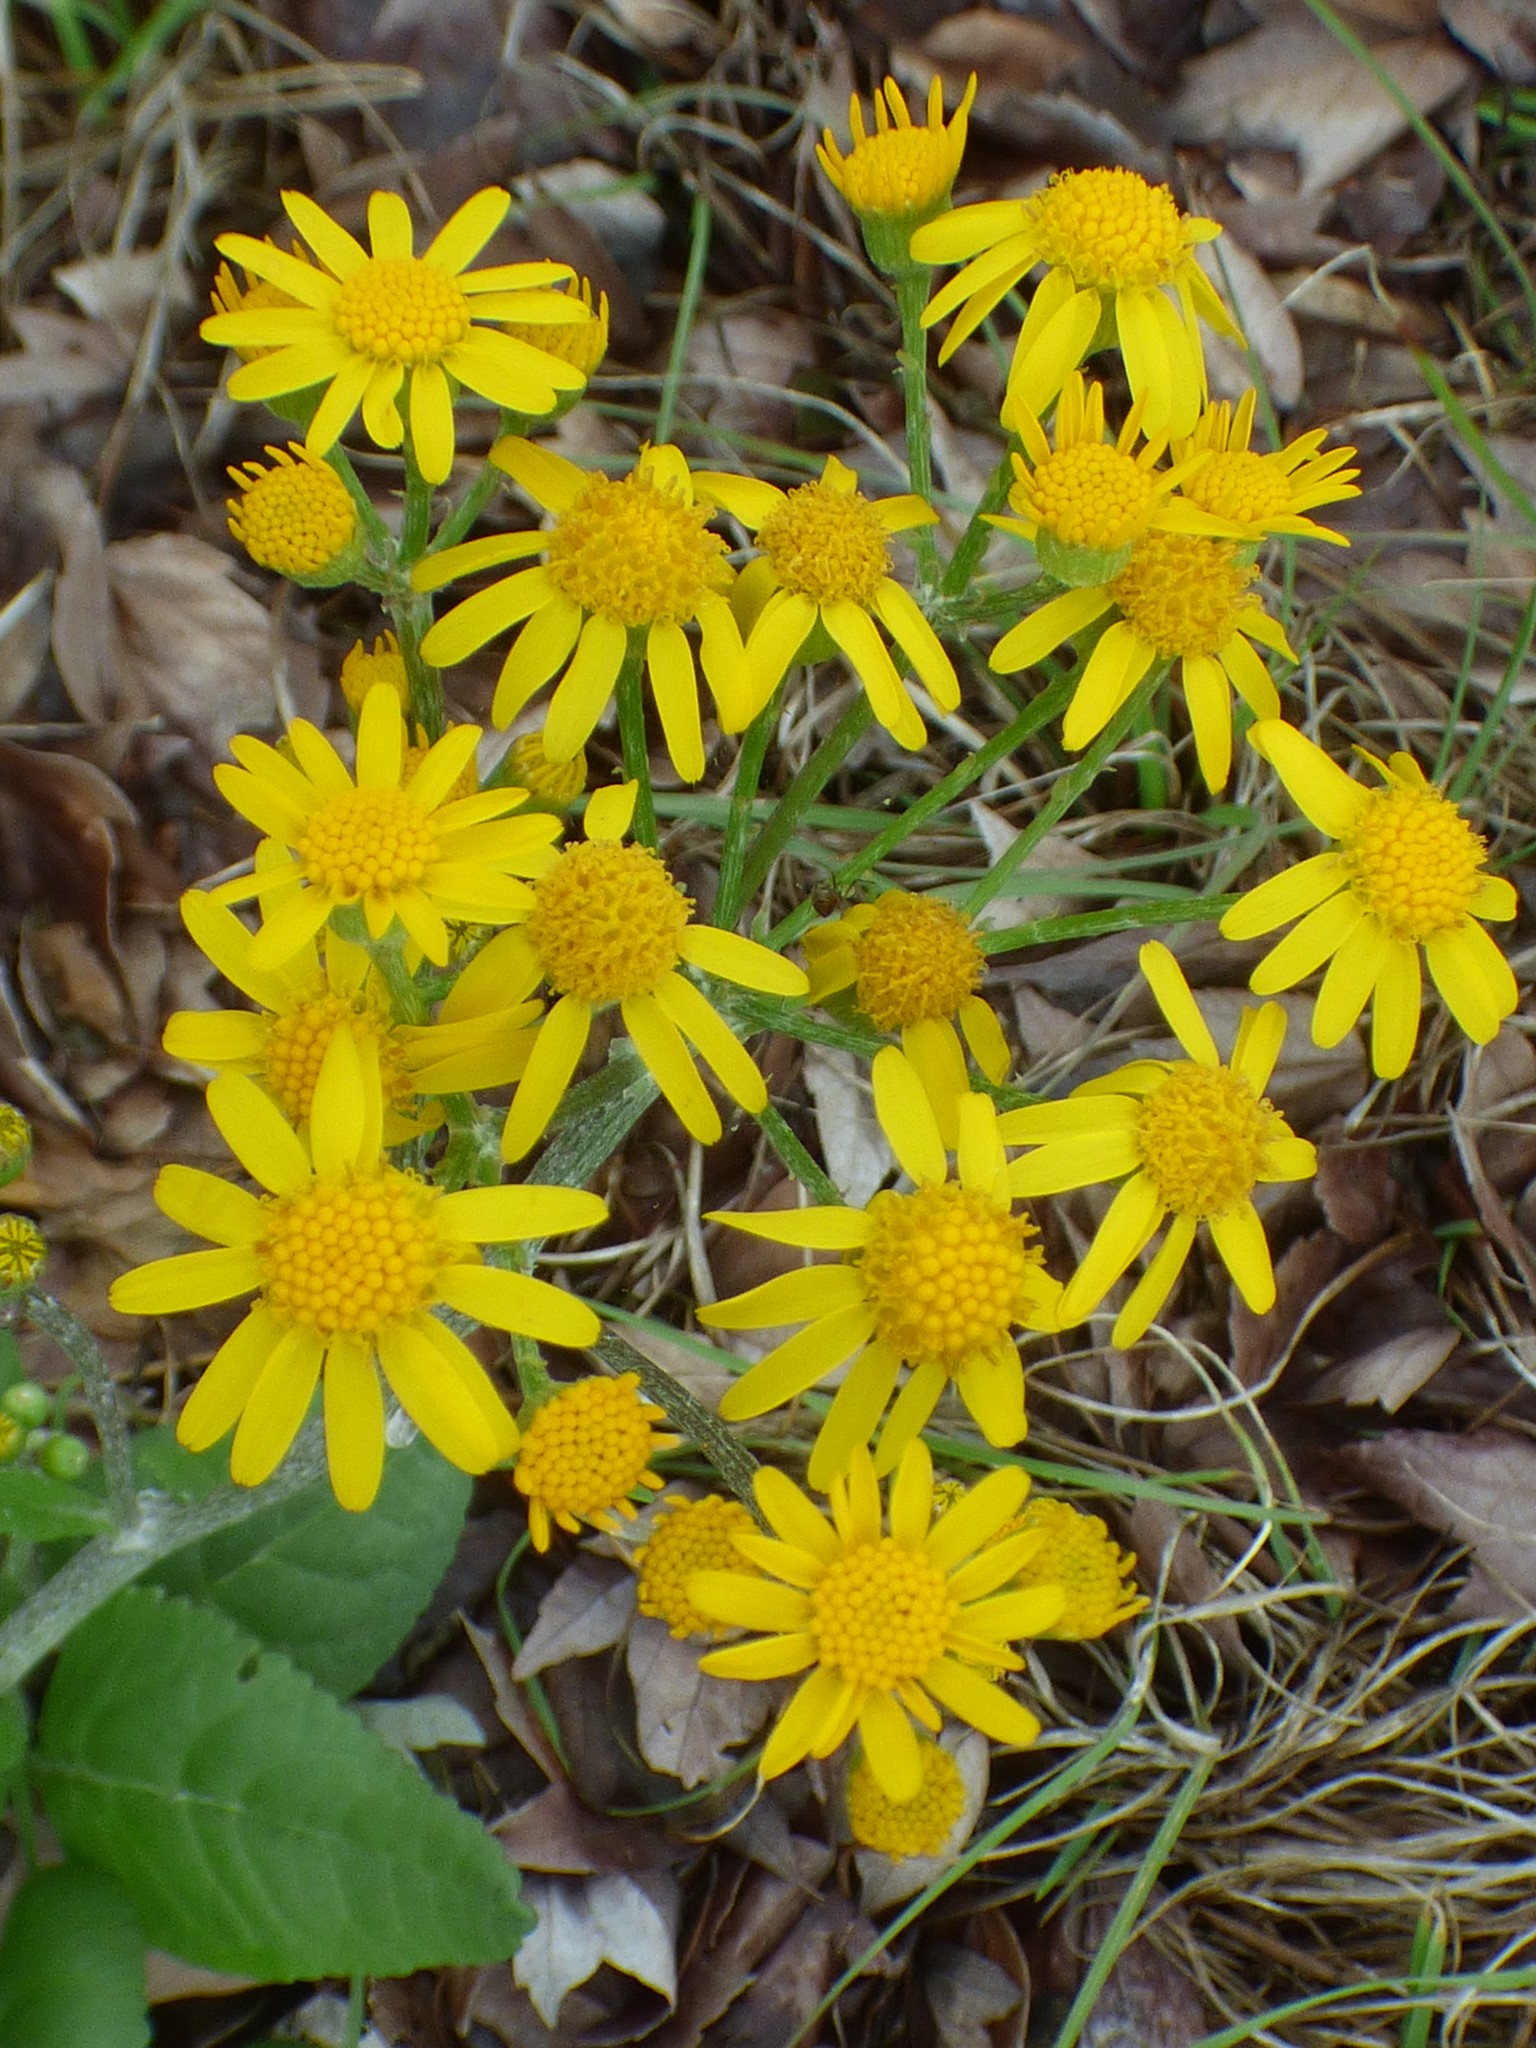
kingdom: Plantae
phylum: Tracheophyta
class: Magnoliopsida
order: Asterales
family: Asteraceae
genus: Packera
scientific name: Packera dubia
